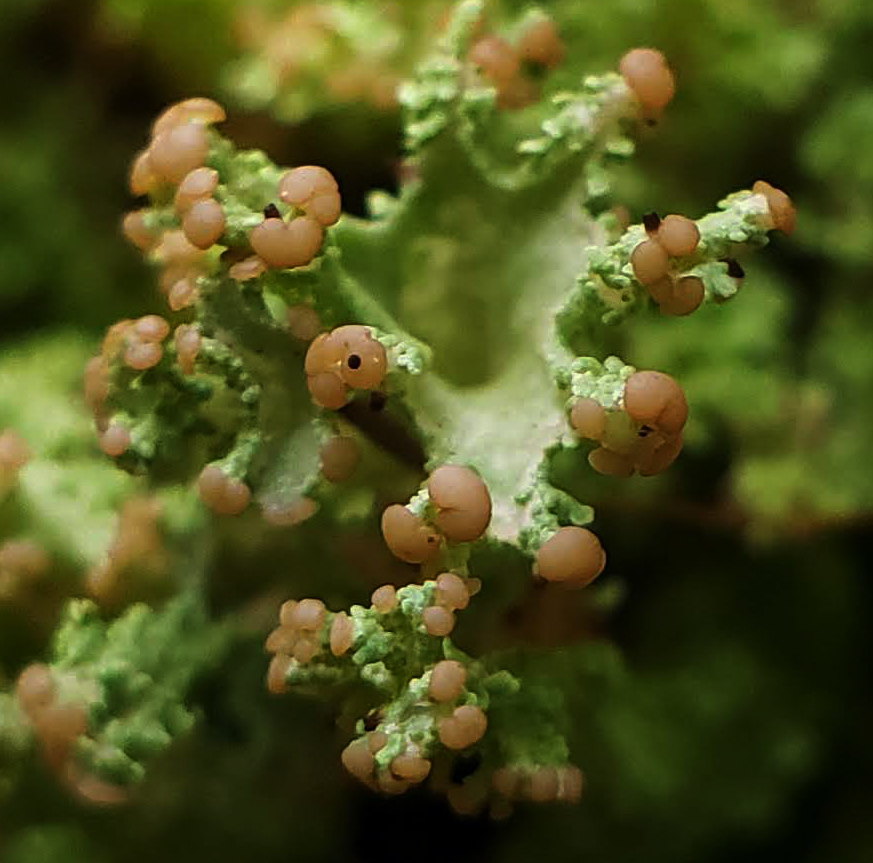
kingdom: Fungi
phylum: Ascomycota
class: Lecanoromycetes
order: Lecanorales
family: Cladoniaceae
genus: Cladonia
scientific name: Cladonia squamosa
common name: Dragon horn
